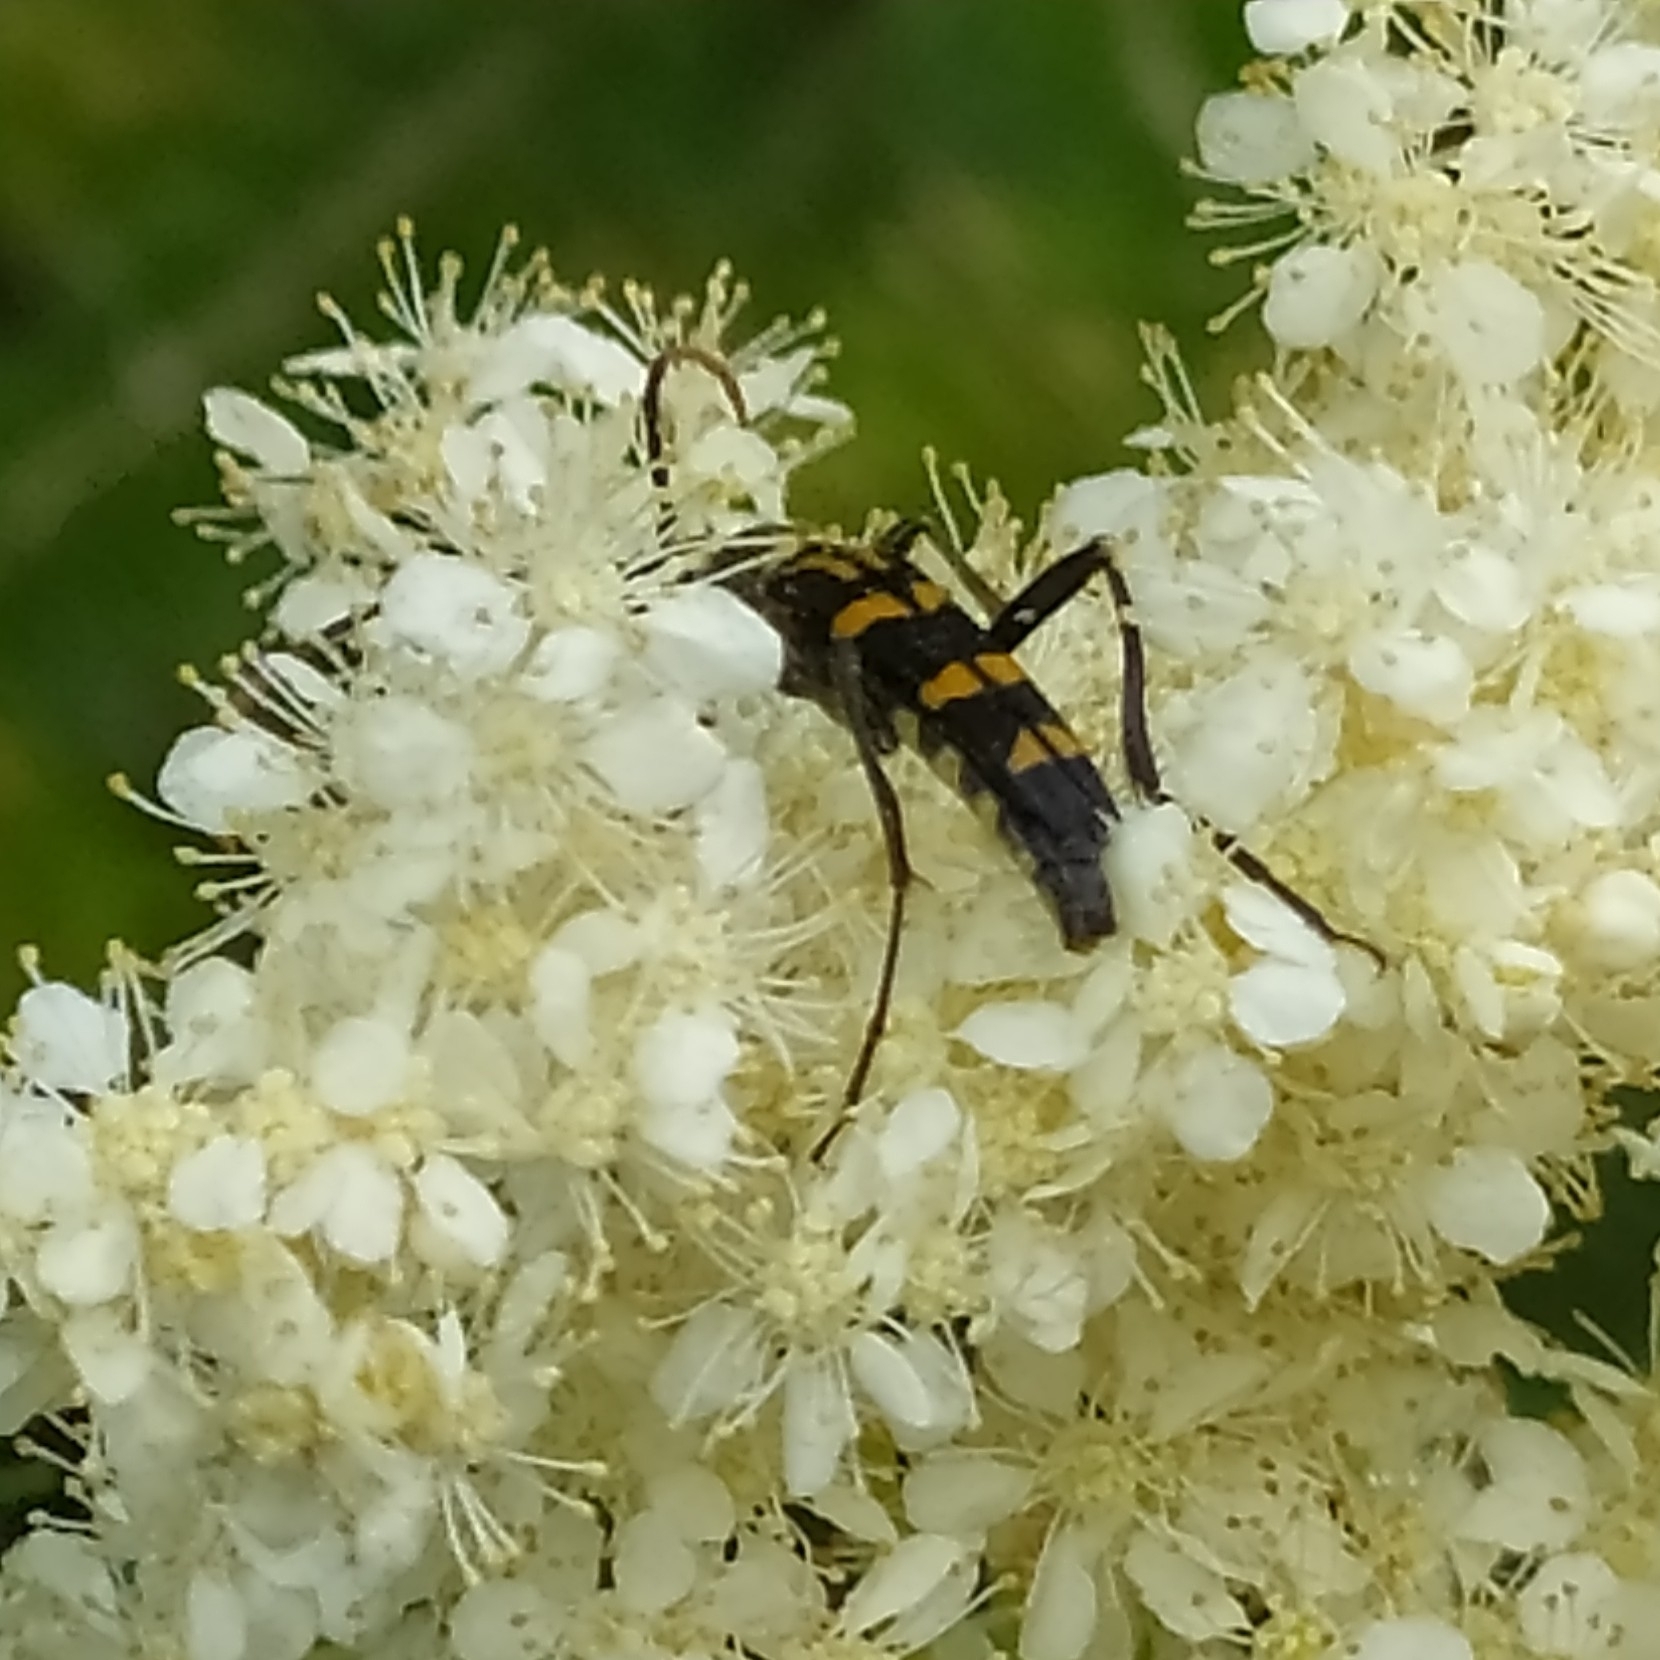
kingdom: Animalia
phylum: Arthropoda
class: Insecta
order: Coleoptera
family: Cerambycidae
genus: Leptura
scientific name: Leptura annularis
